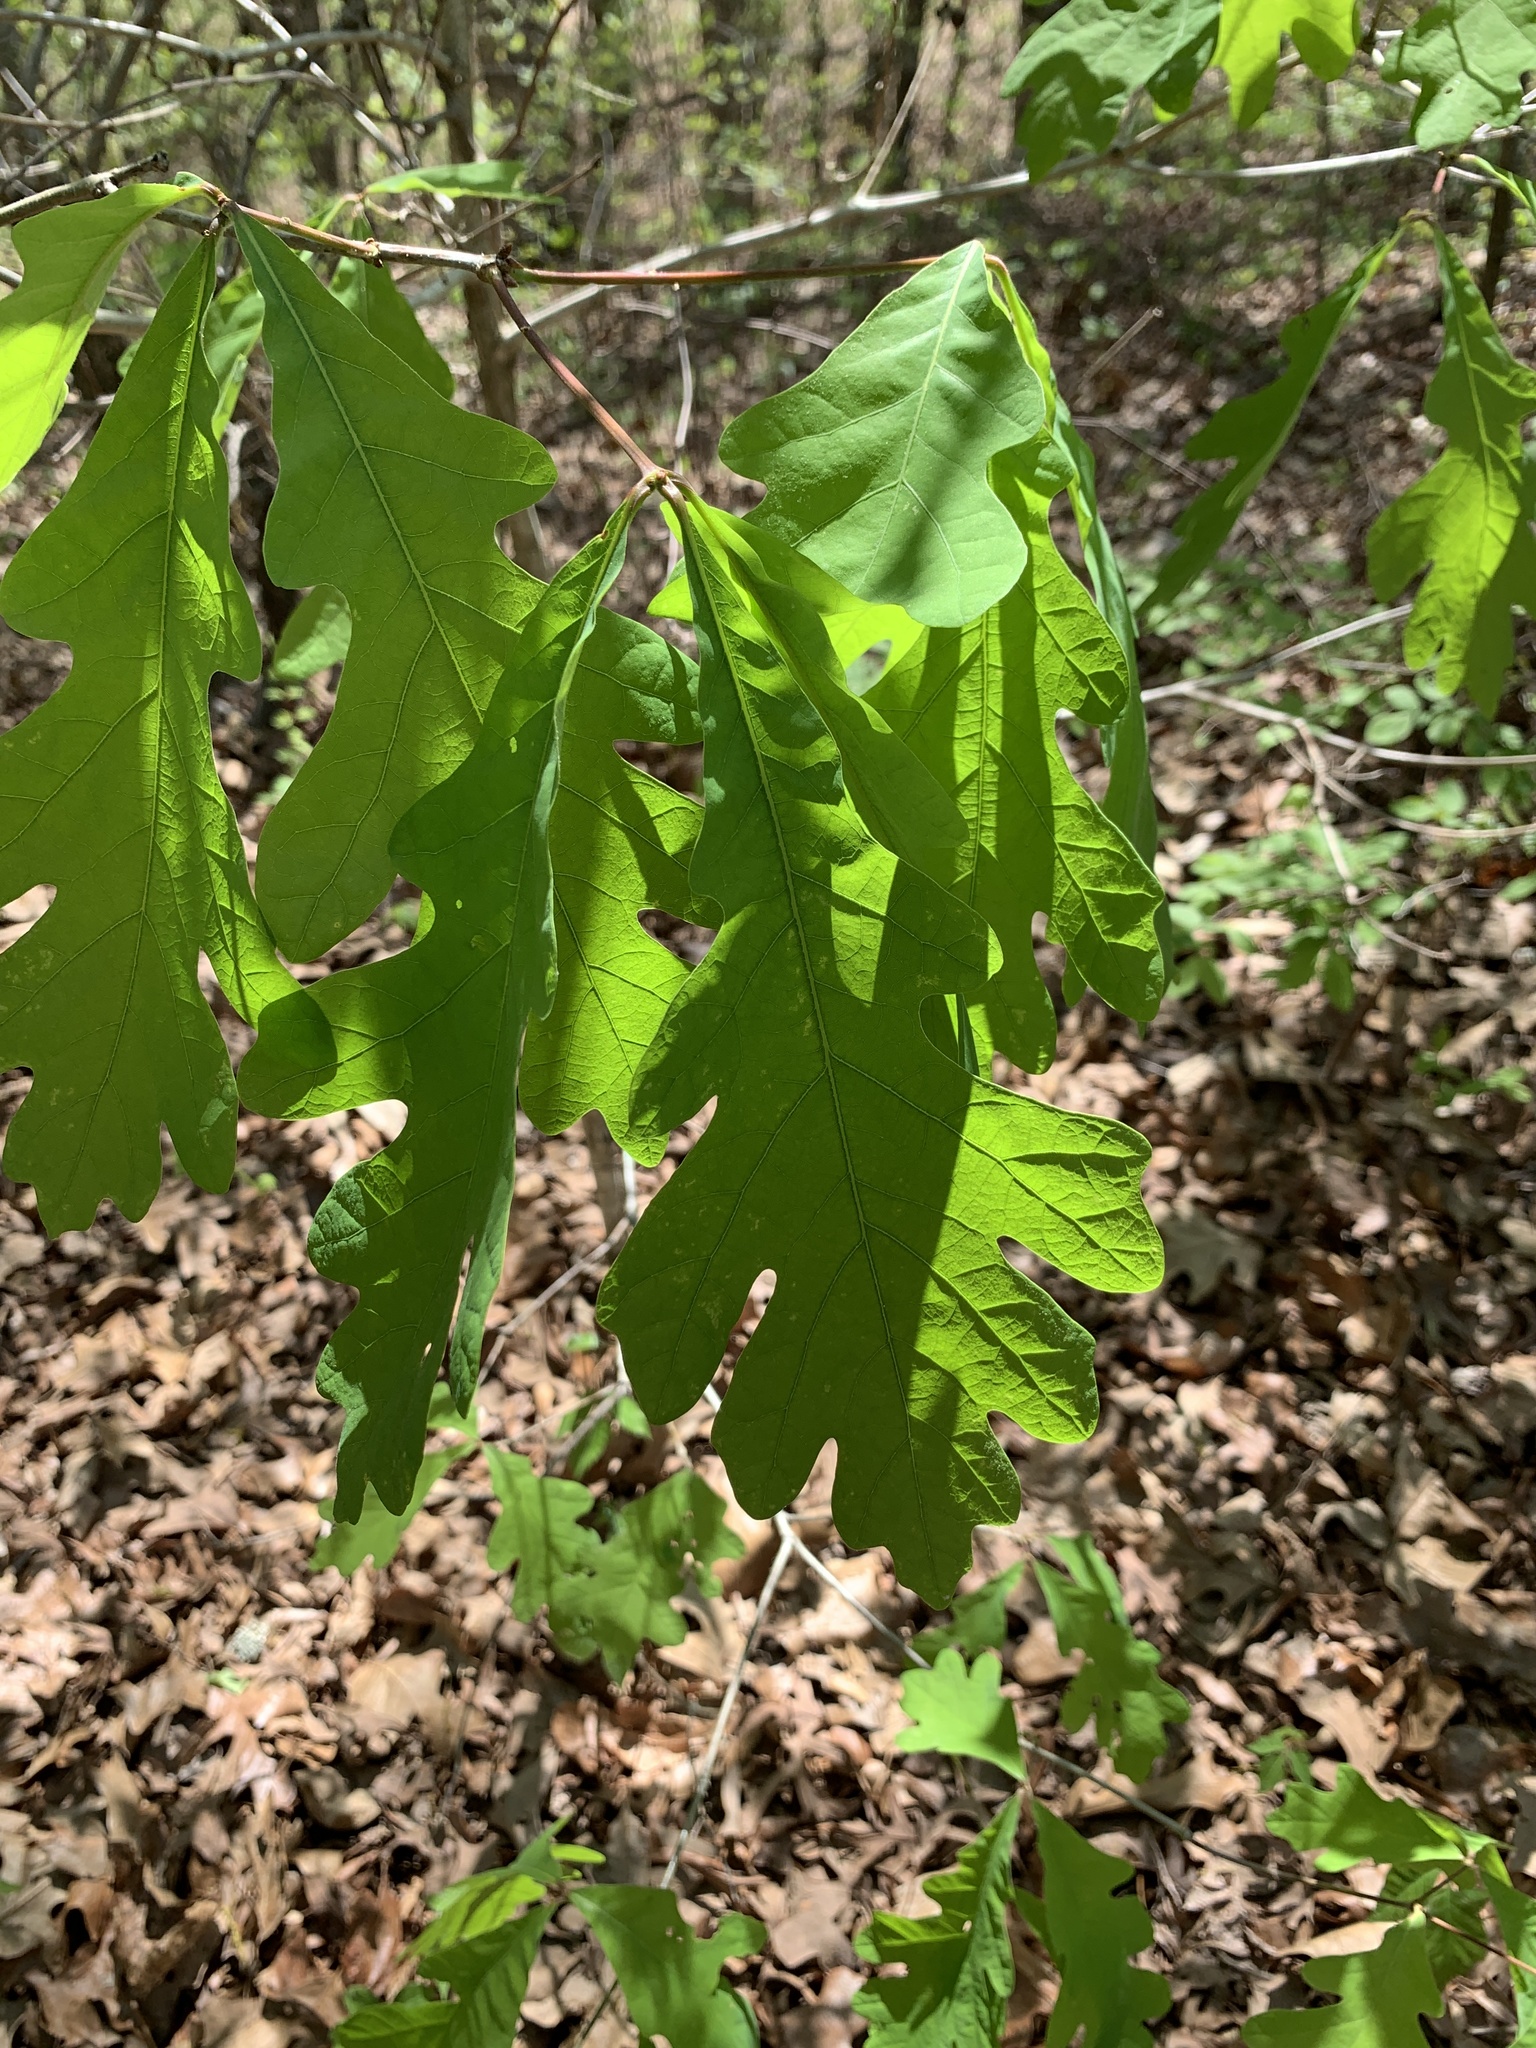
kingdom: Plantae
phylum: Tracheophyta
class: Magnoliopsida
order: Fagales
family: Fagaceae
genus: Quercus
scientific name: Quercus alba
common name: White oak
